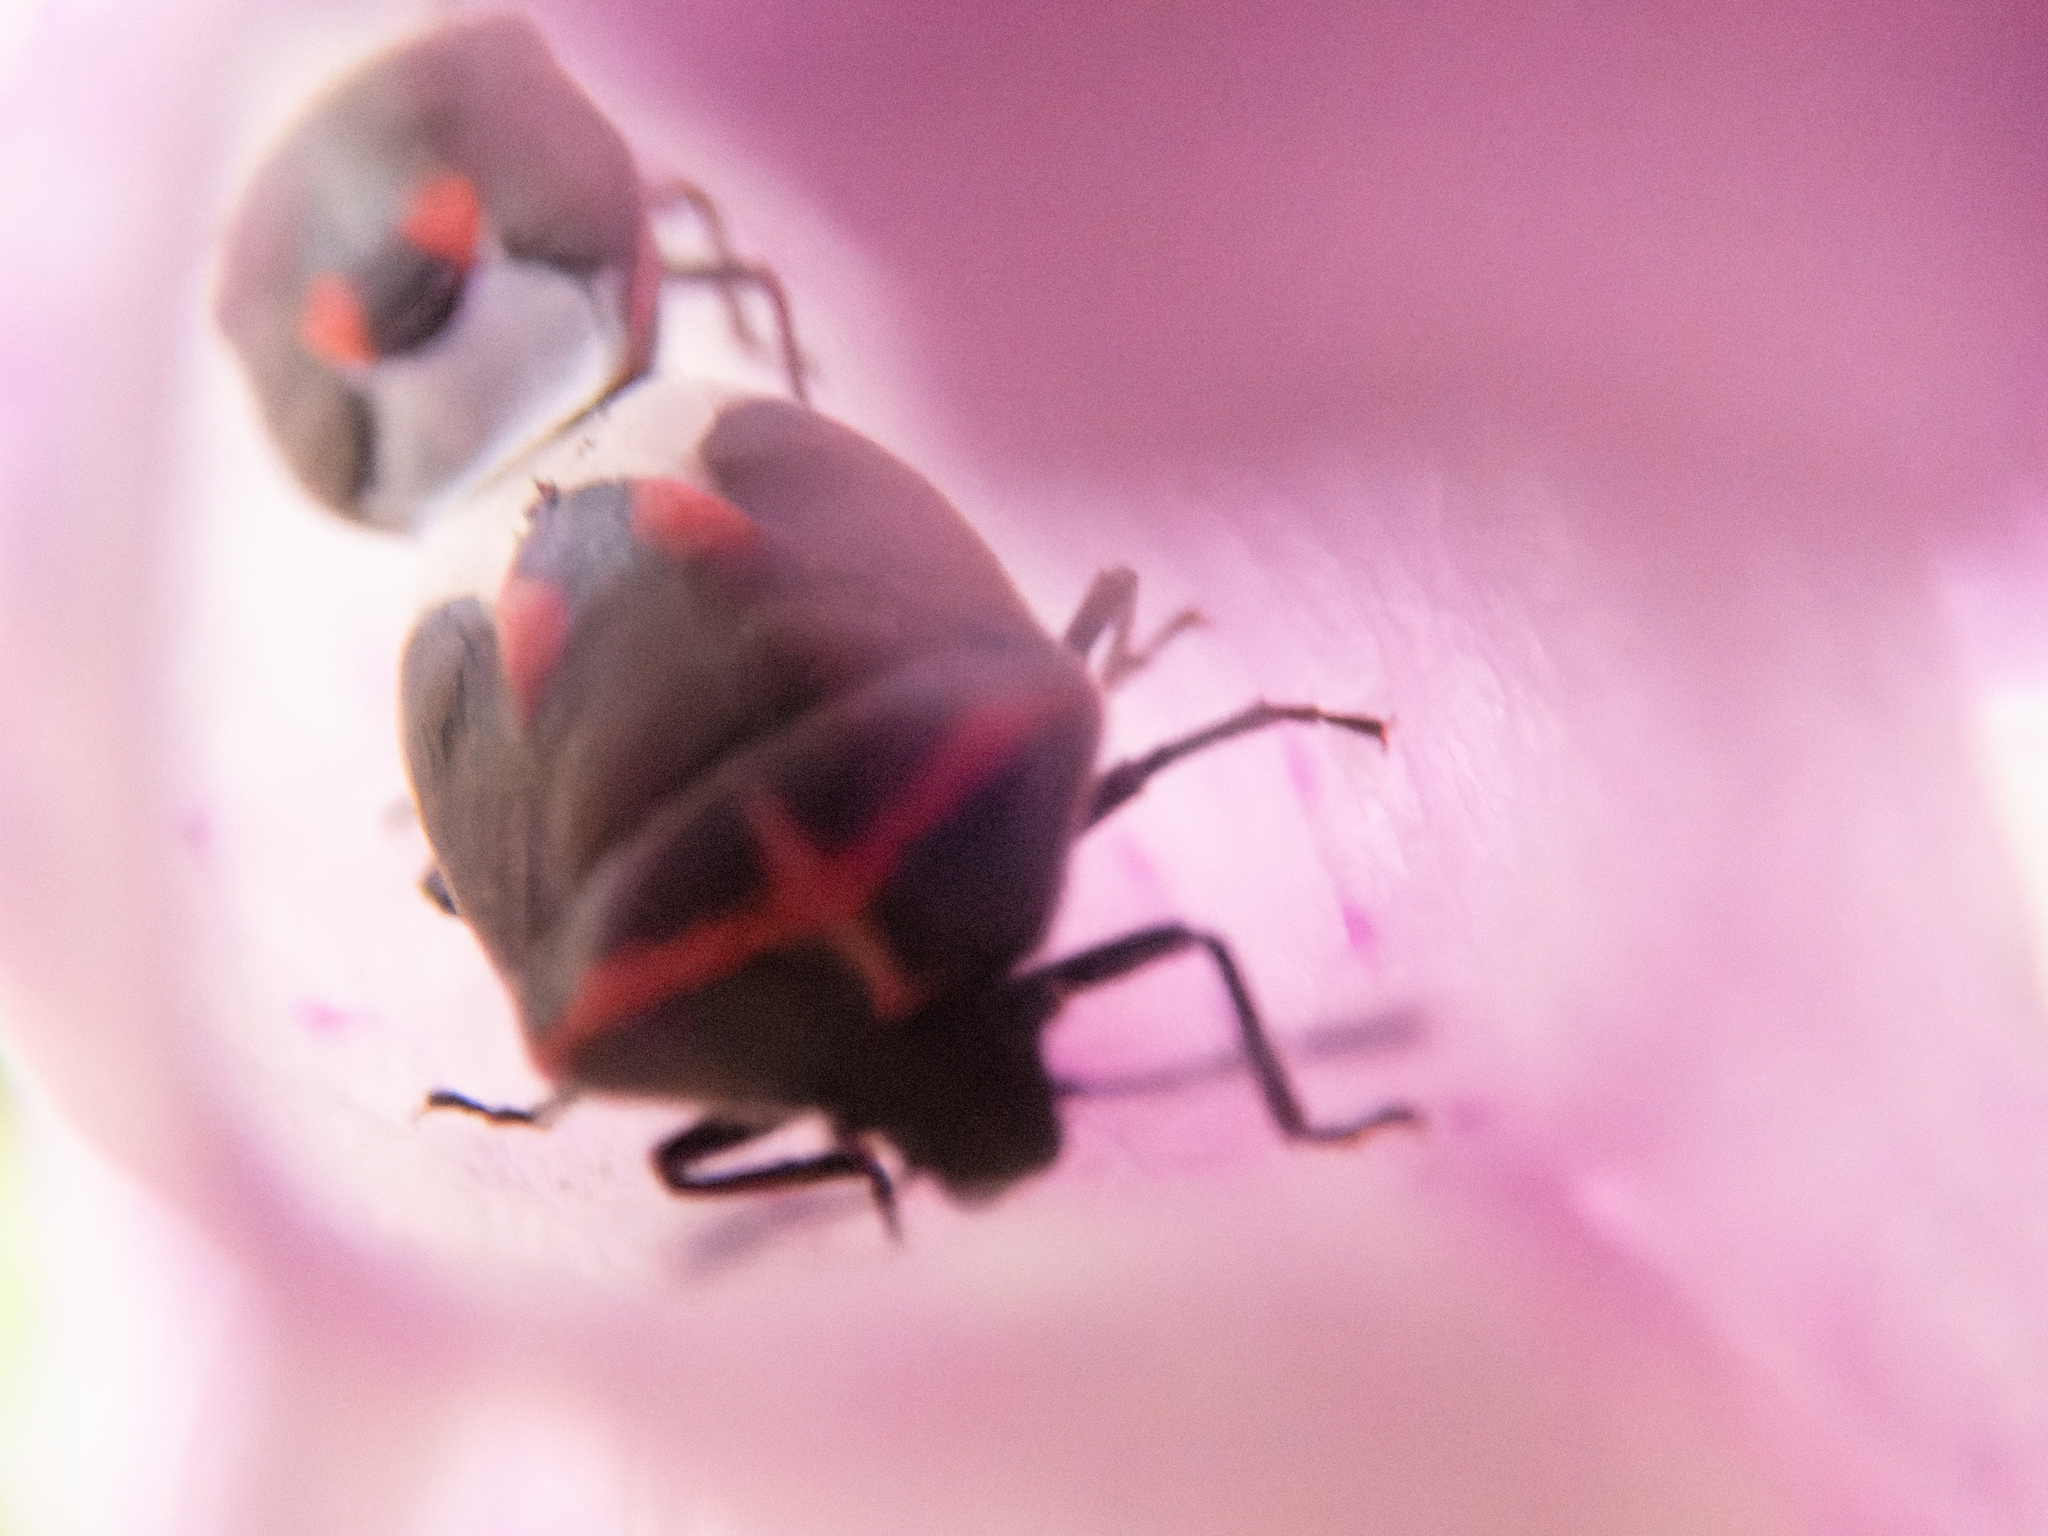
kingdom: Animalia
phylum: Arthropoda
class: Insecta
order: Hemiptera
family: Pentatomidae
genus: Cosmopepla
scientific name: Cosmopepla lintneriana
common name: Twice-stabbed stink bug
